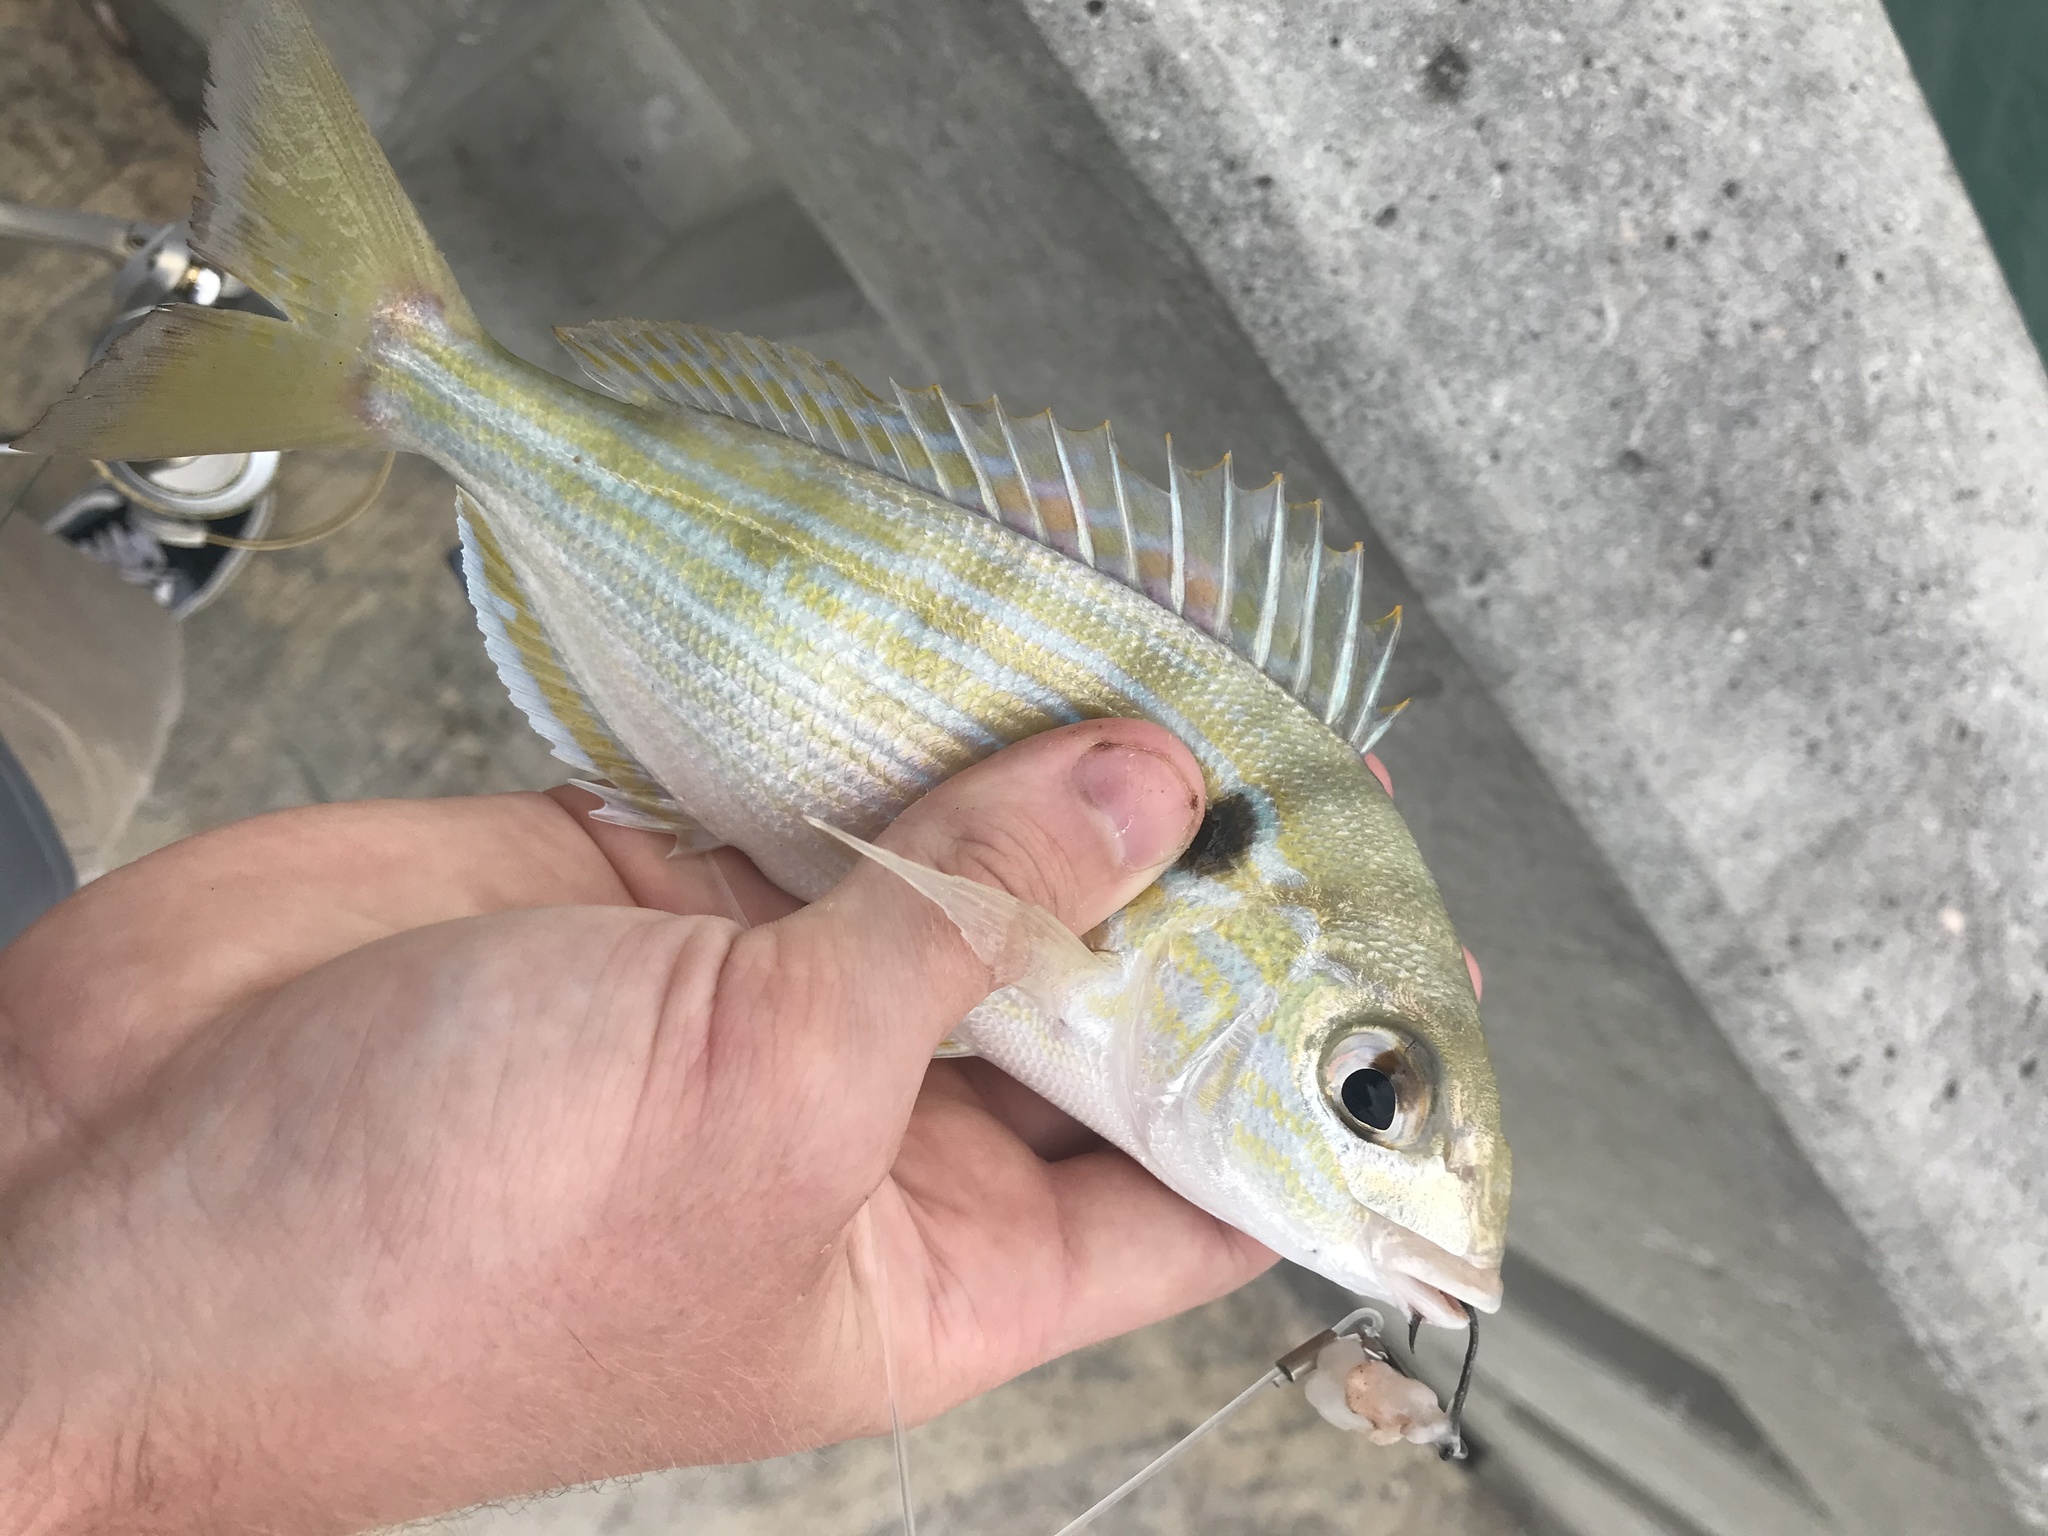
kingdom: Animalia
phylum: Chordata
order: Perciformes
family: Sparidae
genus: Lagodon
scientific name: Lagodon rhomboides
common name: Pinfish
